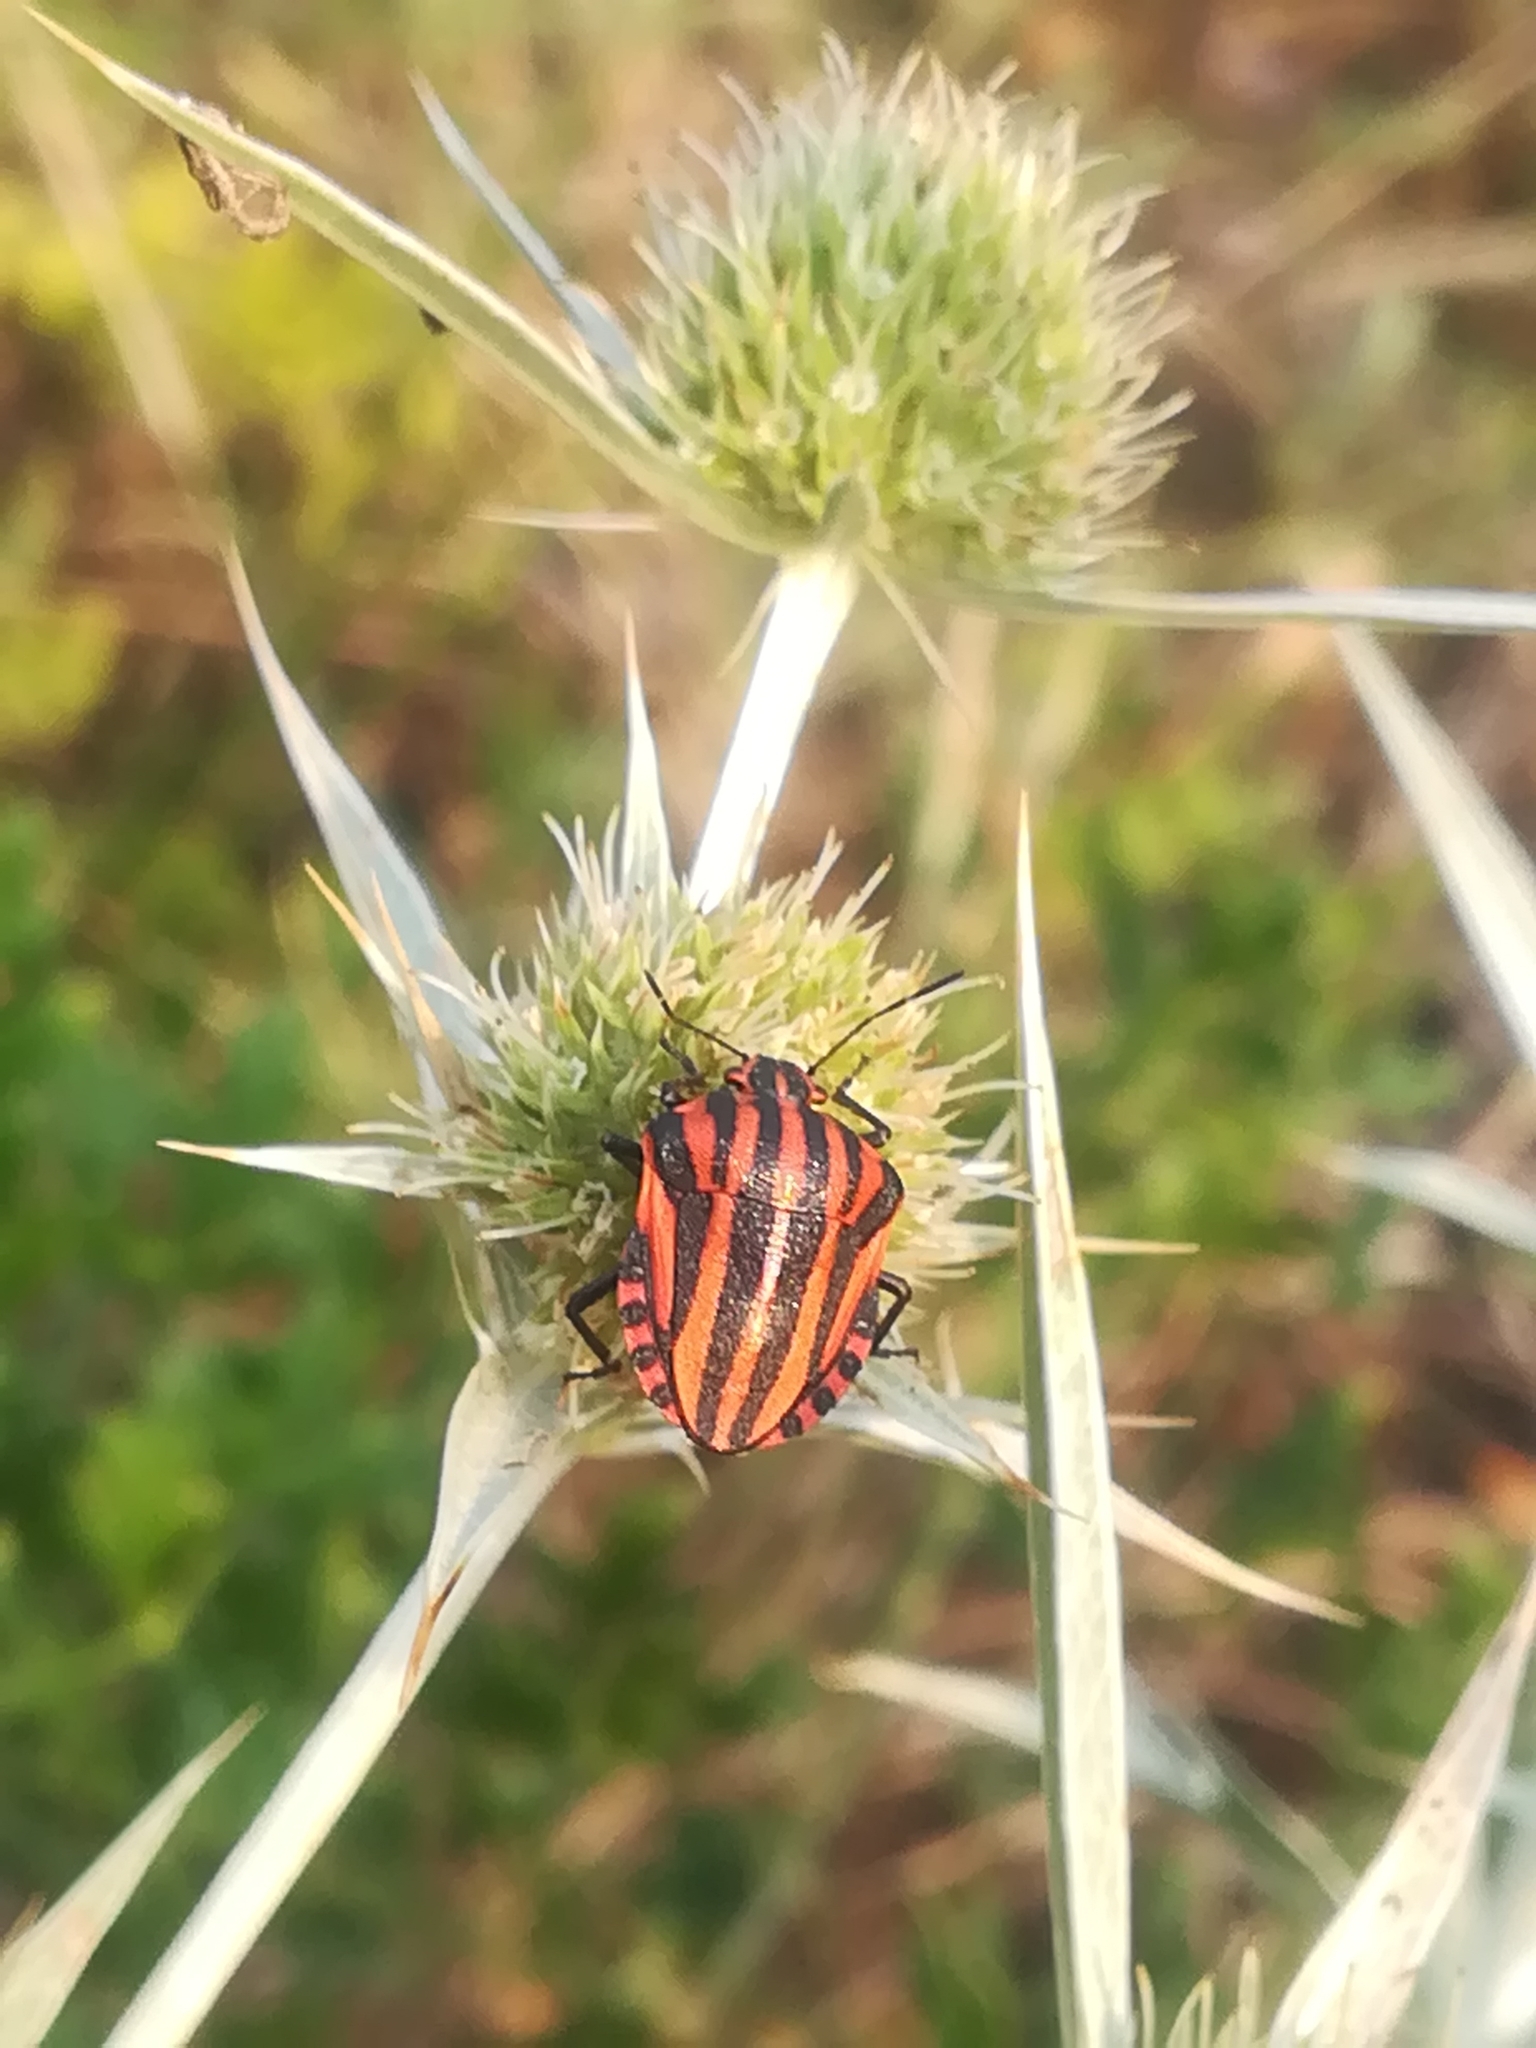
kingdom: Animalia
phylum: Arthropoda
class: Insecta
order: Hemiptera
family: Pentatomidae
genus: Graphosoma
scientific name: Graphosoma italicum
